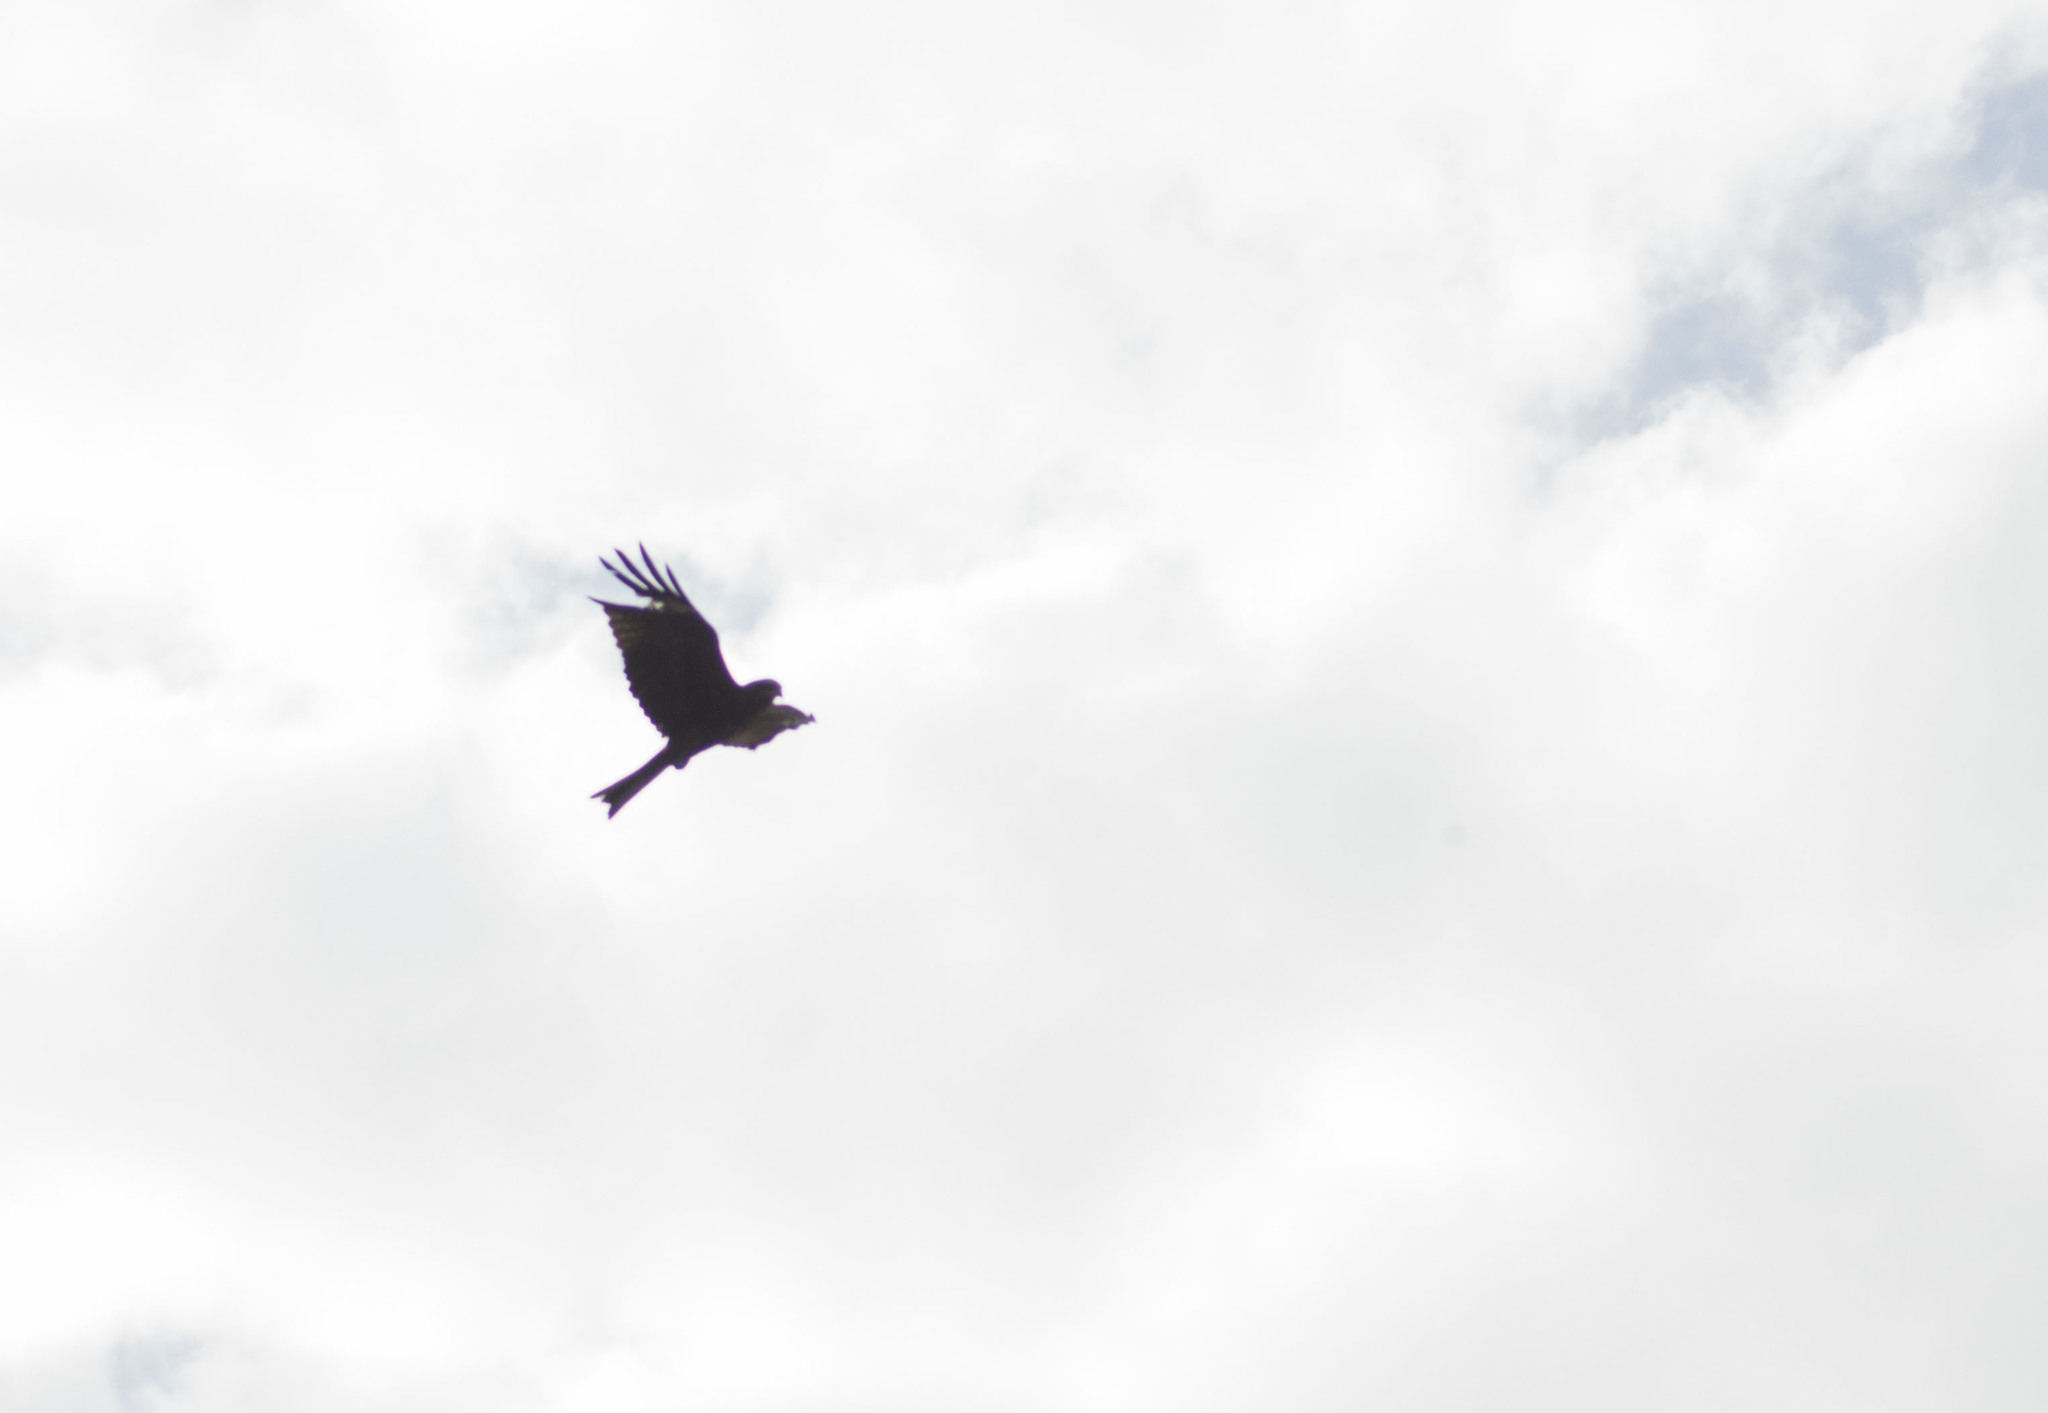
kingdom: Animalia
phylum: Chordata
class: Aves
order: Accipitriformes
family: Accipitridae
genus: Milvus
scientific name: Milvus migrans
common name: Black kite
